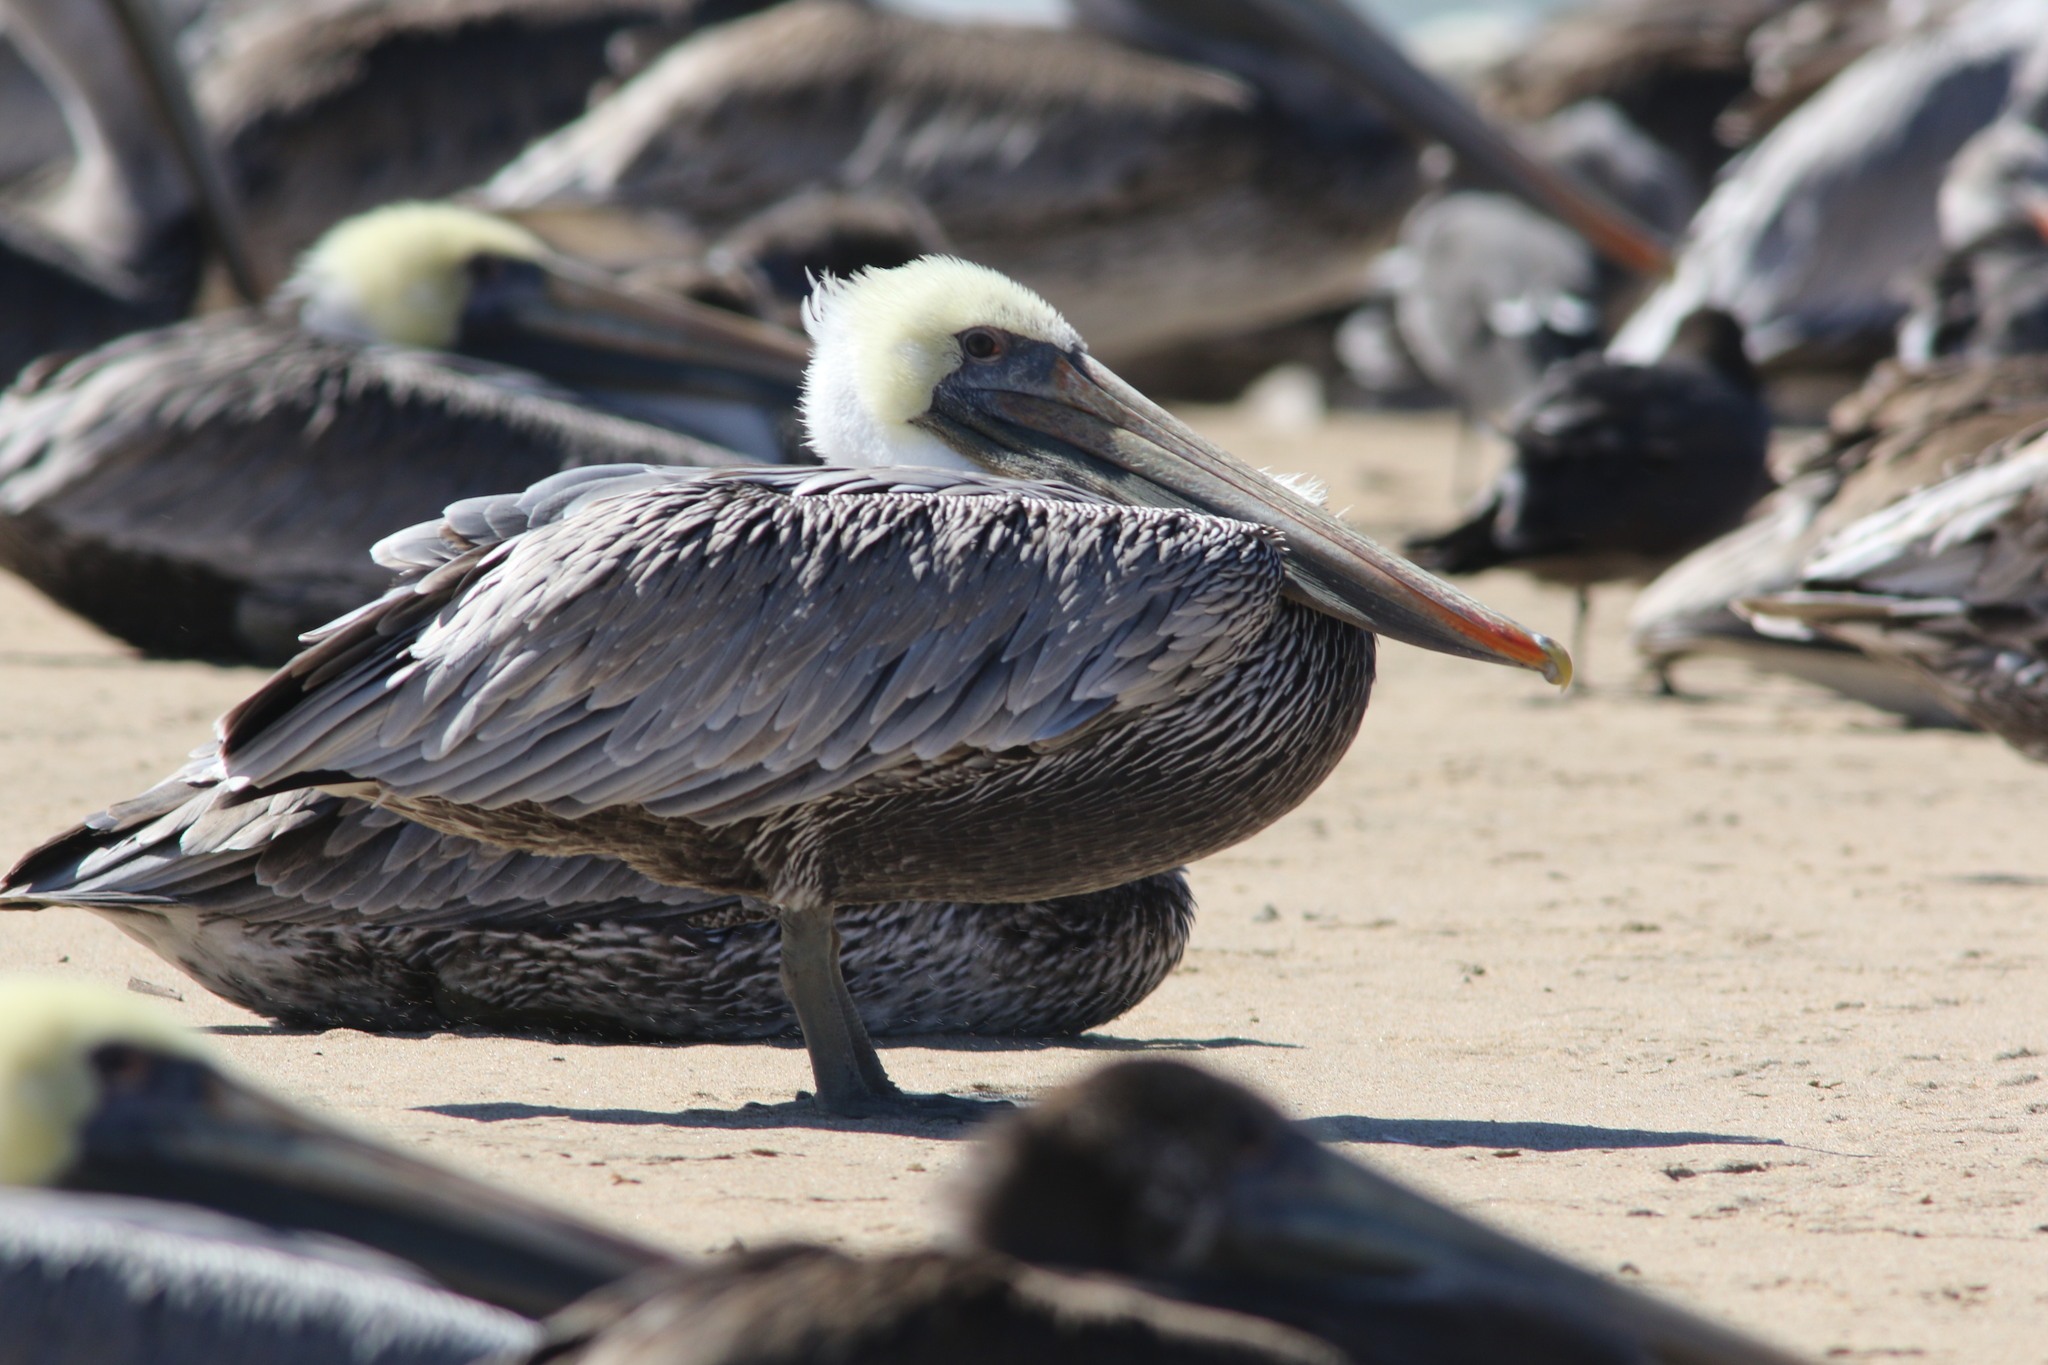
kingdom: Animalia
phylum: Chordata
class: Aves
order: Pelecaniformes
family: Pelecanidae
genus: Pelecanus
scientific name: Pelecanus occidentalis
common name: Brown pelican
